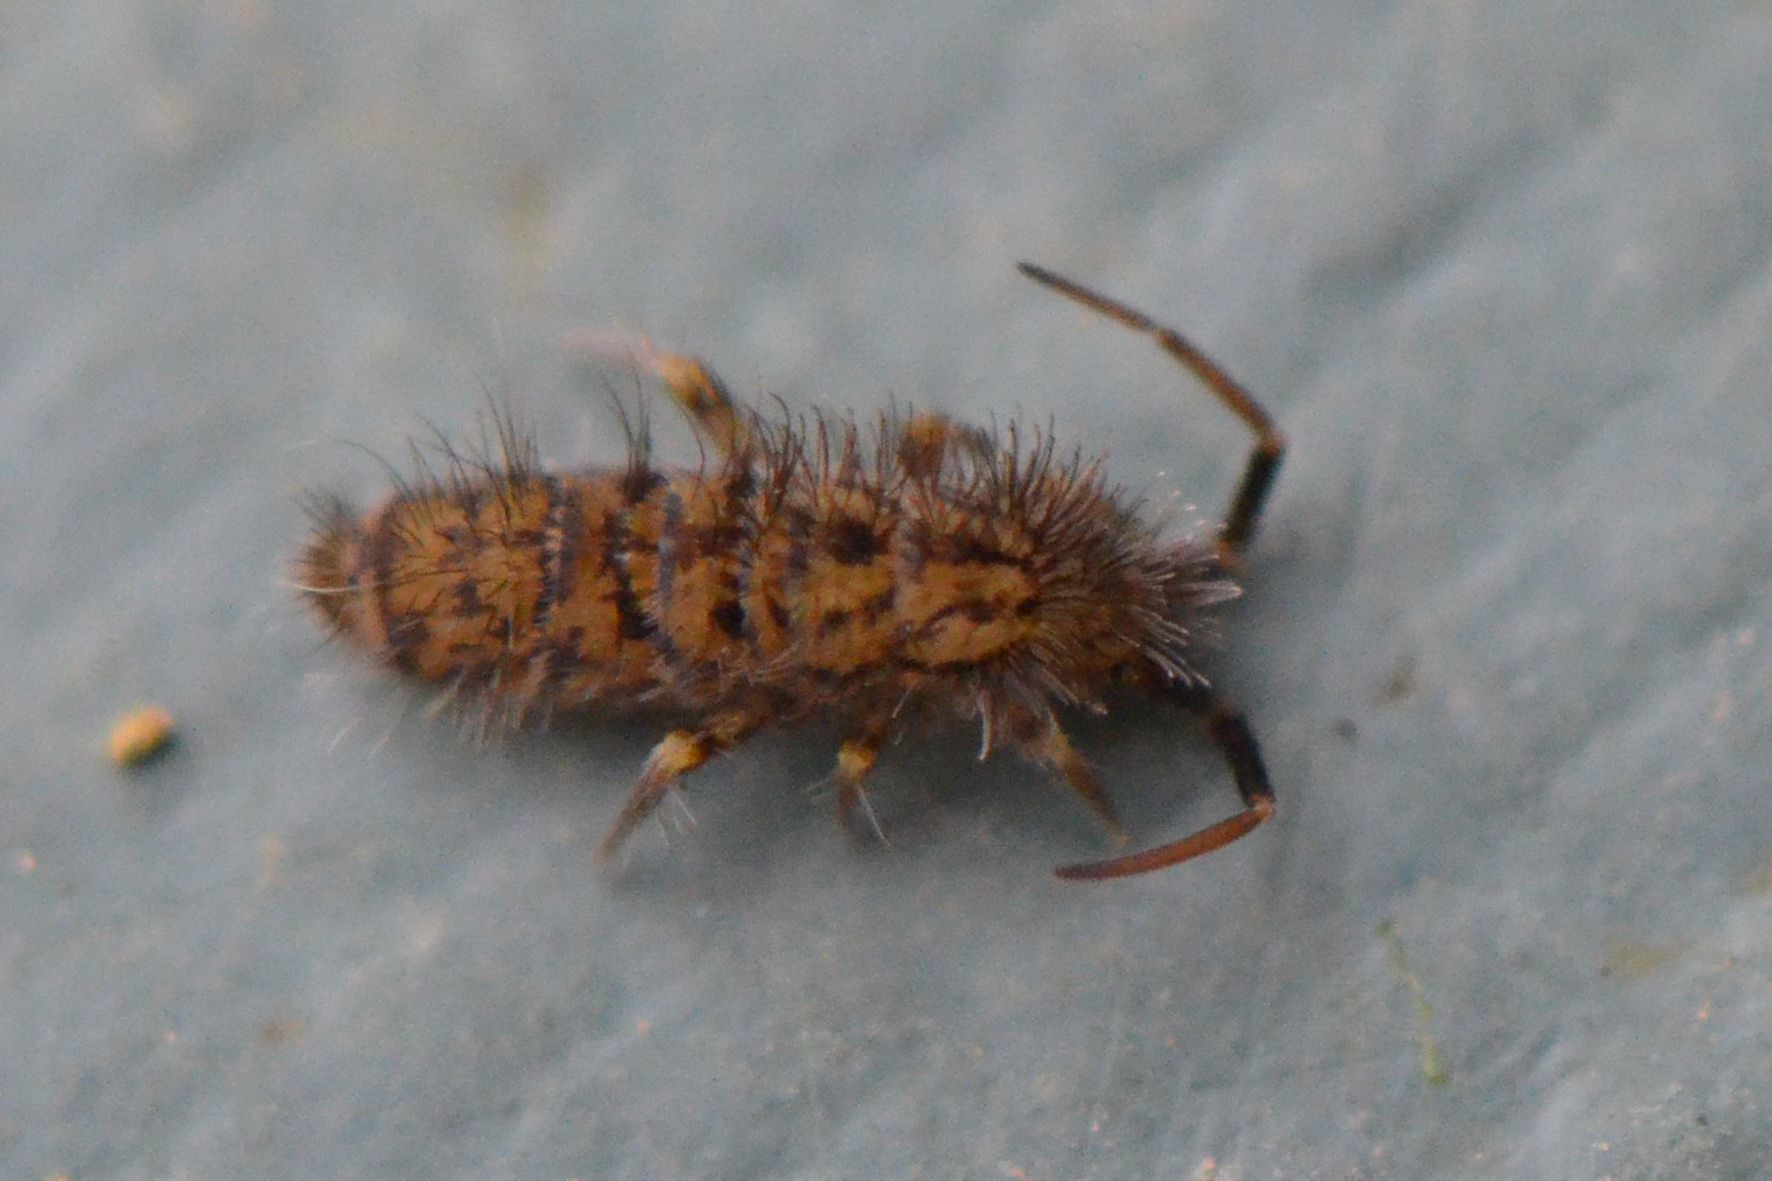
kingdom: Animalia
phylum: Arthropoda
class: Collembola
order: Entomobryomorpha
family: Orchesellidae
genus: Orchesella
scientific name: Orchesella villosa
